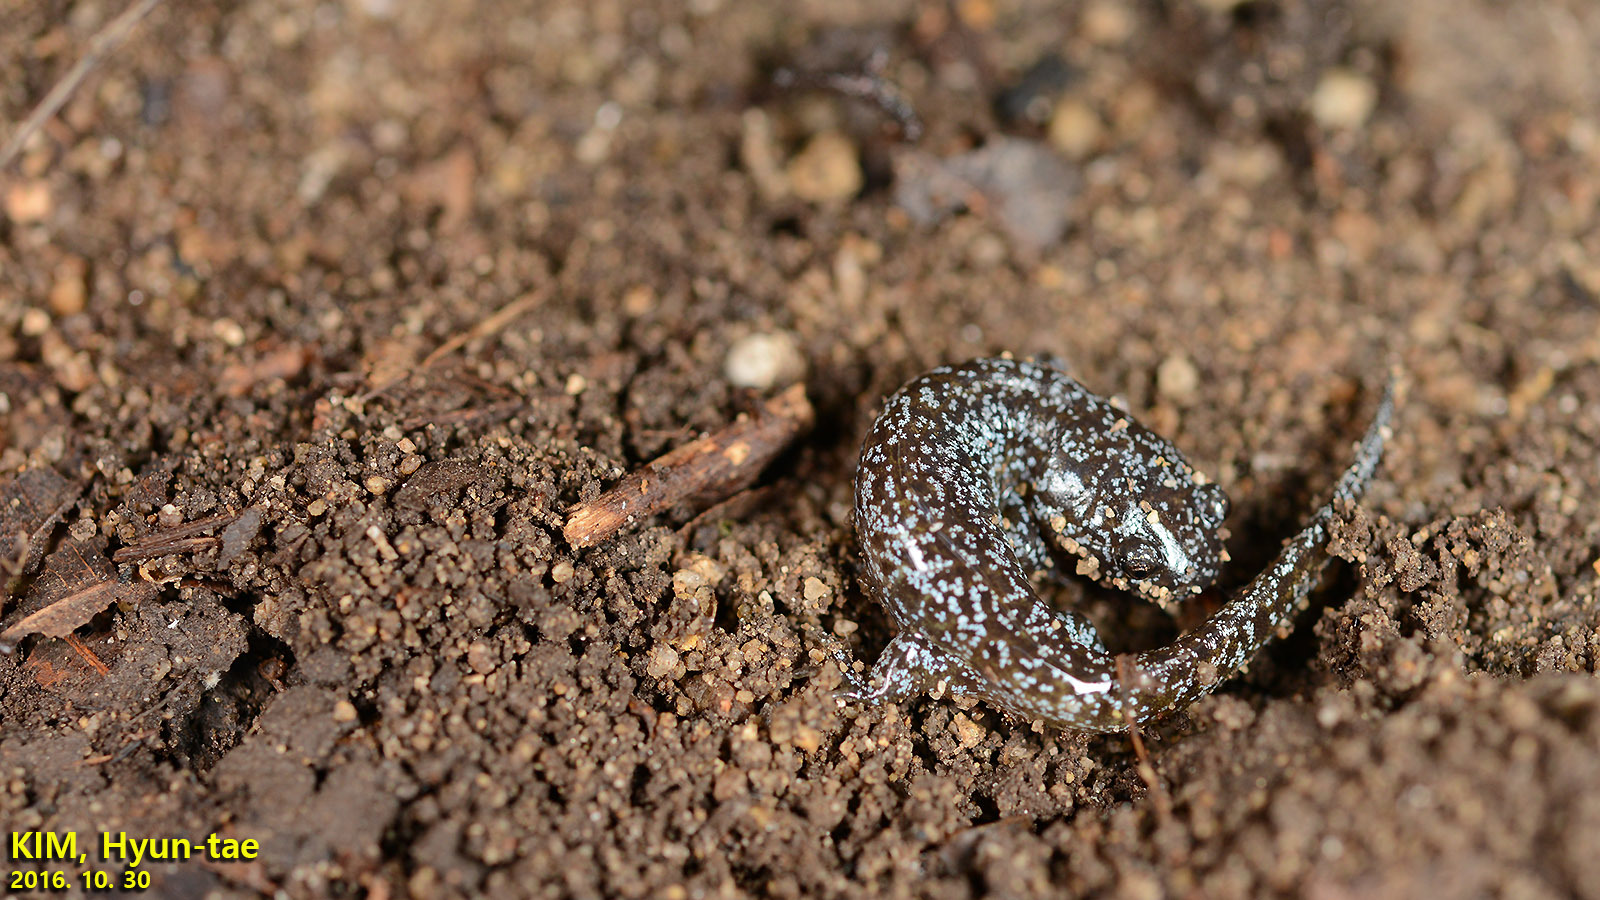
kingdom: Animalia
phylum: Chordata
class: Amphibia
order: Caudata
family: Hynobiidae
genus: Hynobius
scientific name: Hynobius leechii
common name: Gensan salamander
